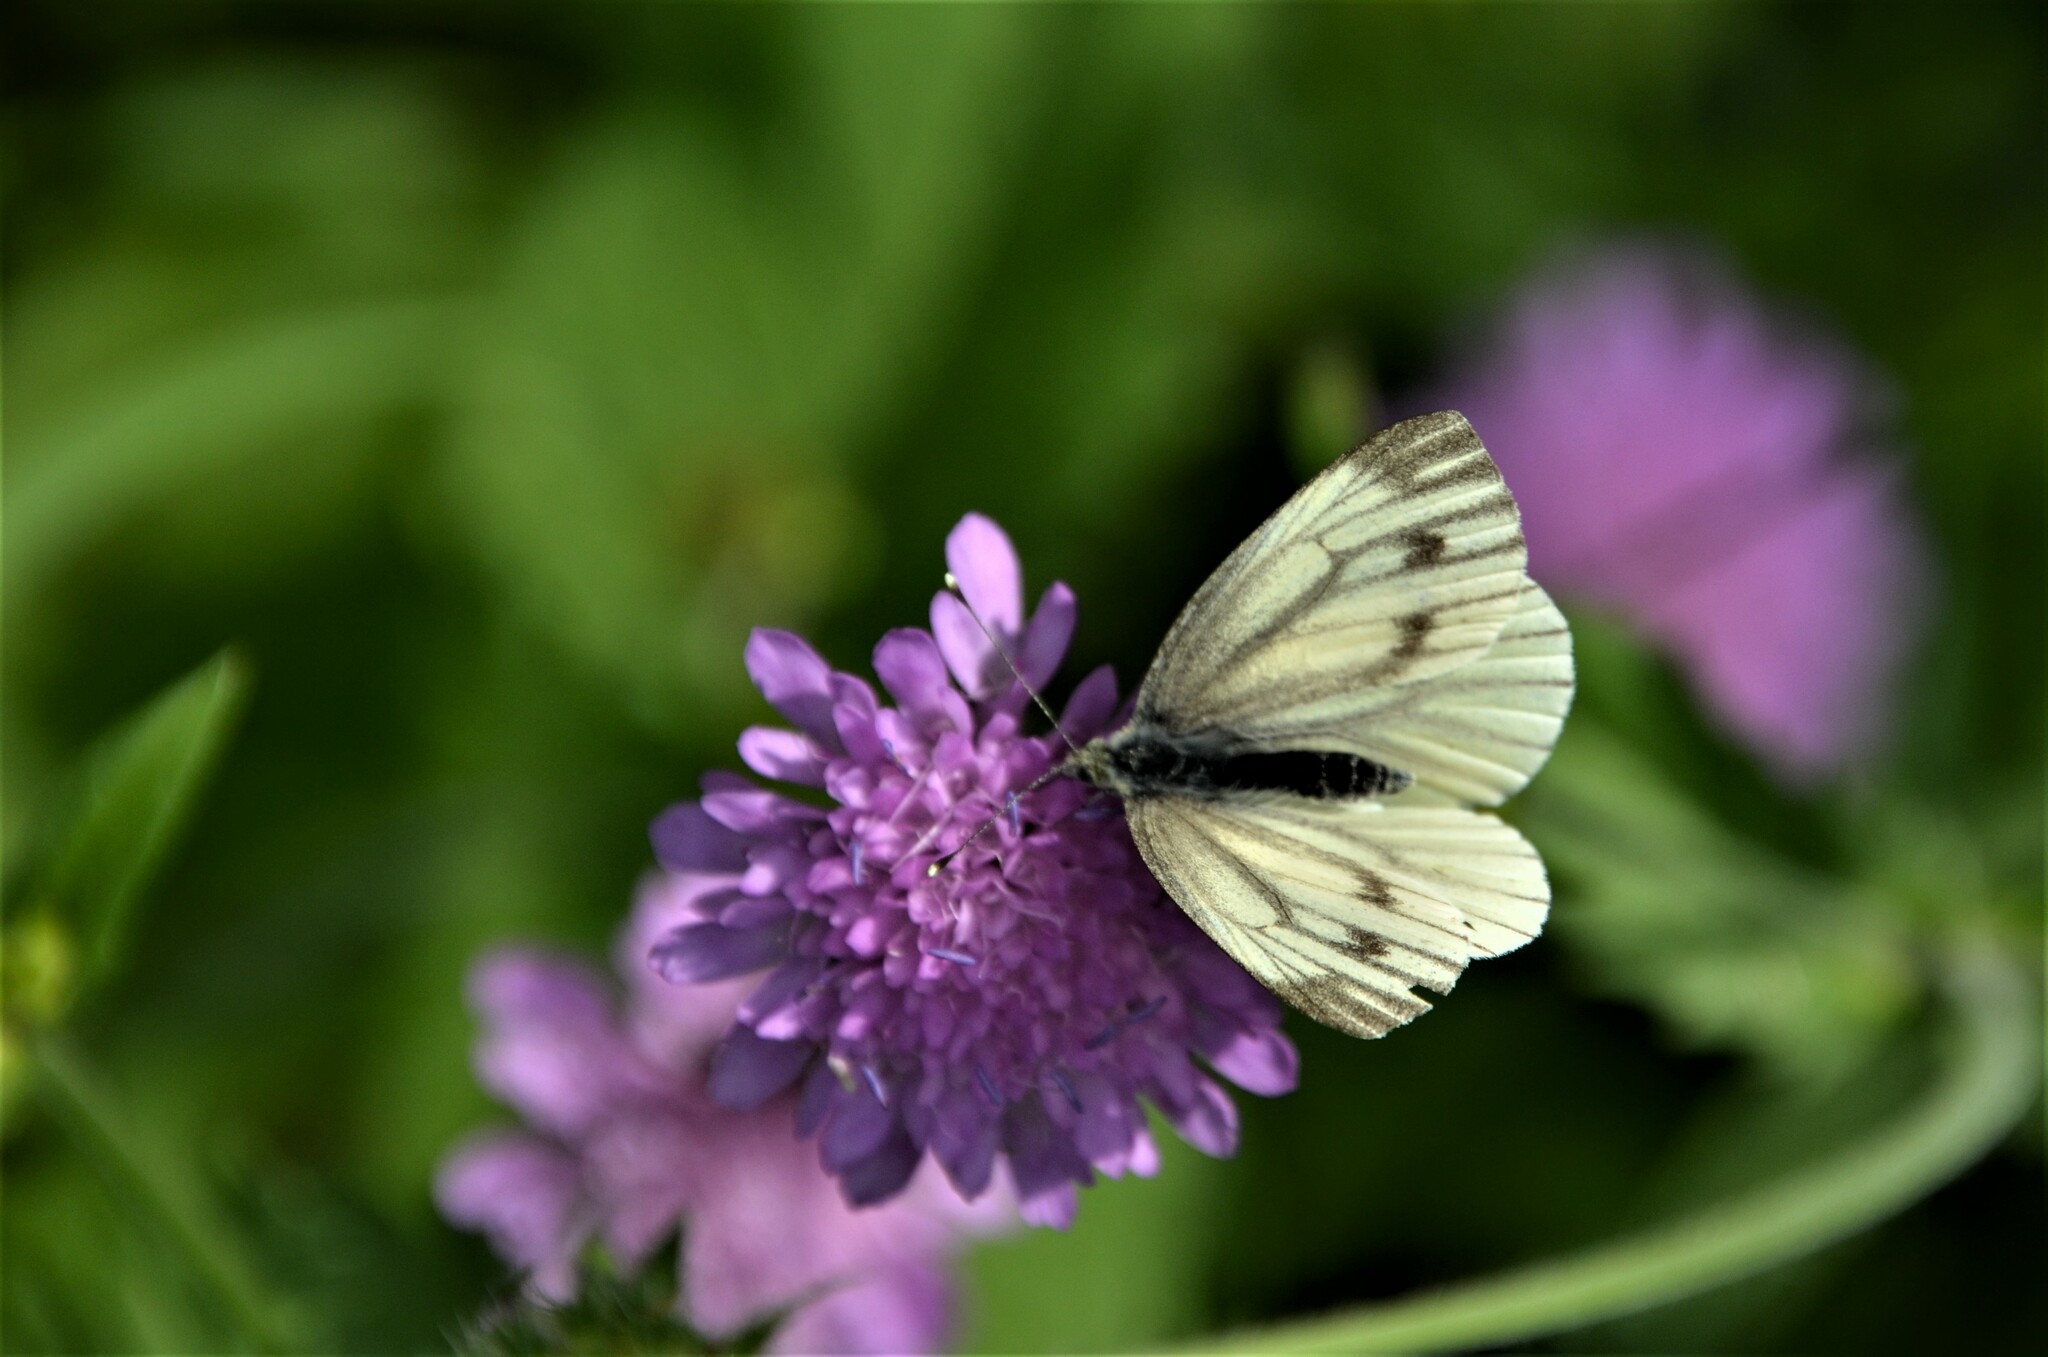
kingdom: Animalia
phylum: Arthropoda
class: Insecta
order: Lepidoptera
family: Pieridae
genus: Pieris
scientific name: Pieris napi
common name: Green-veined white
